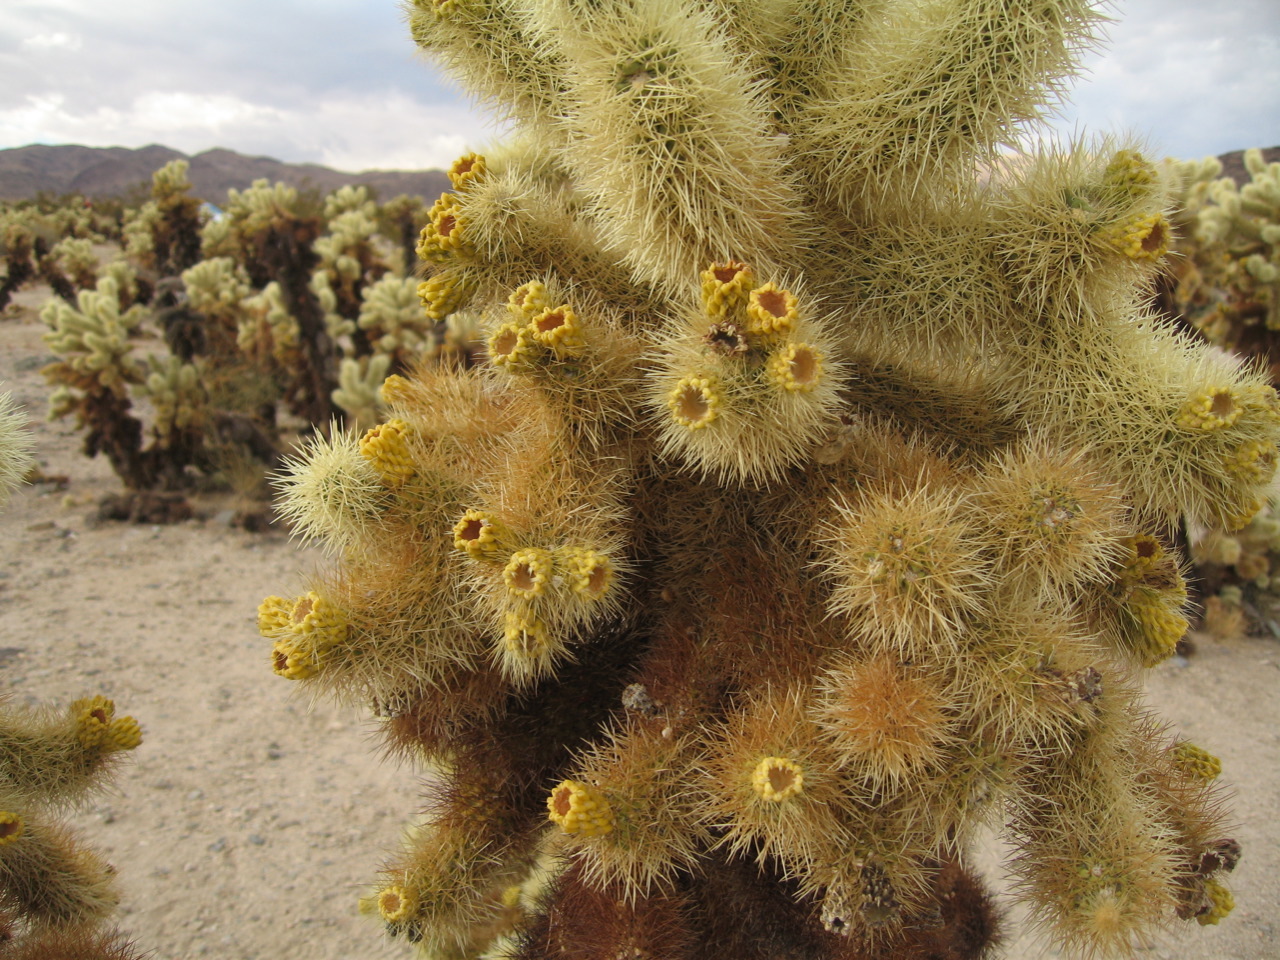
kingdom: Plantae
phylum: Tracheophyta
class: Magnoliopsida
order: Caryophyllales
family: Cactaceae
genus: Cylindropuntia
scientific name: Cylindropuntia fosbergii
